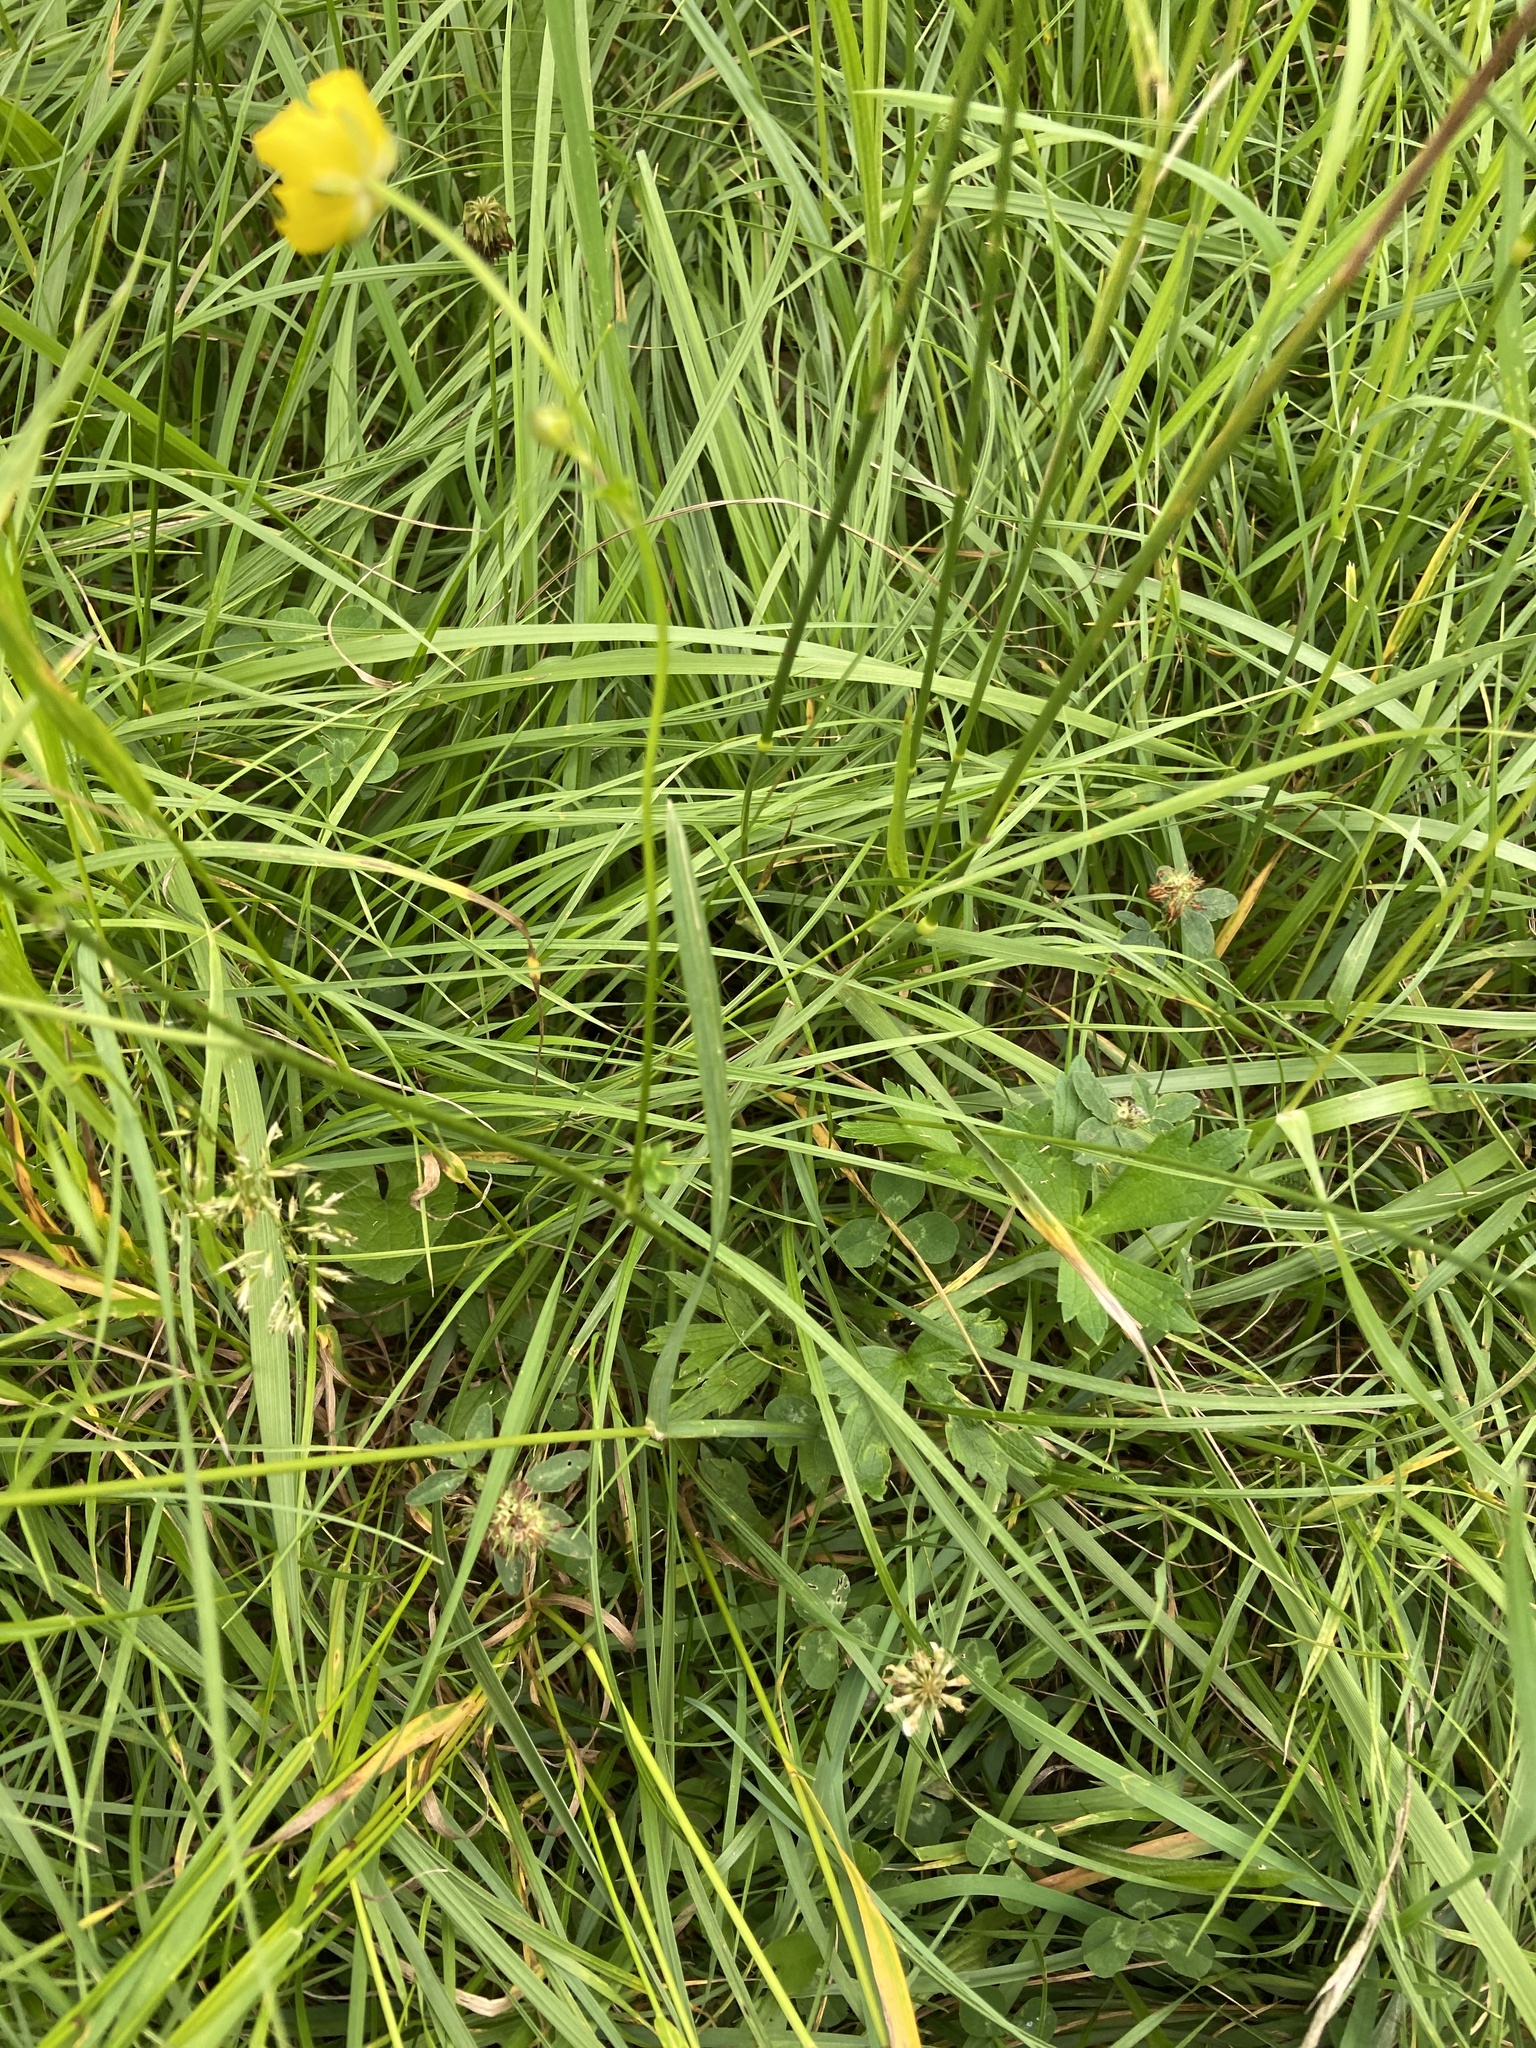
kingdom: Plantae
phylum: Tracheophyta
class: Magnoliopsida
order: Ranunculales
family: Ranunculaceae
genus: Ranunculus
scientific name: Ranunculus polyanthemos
